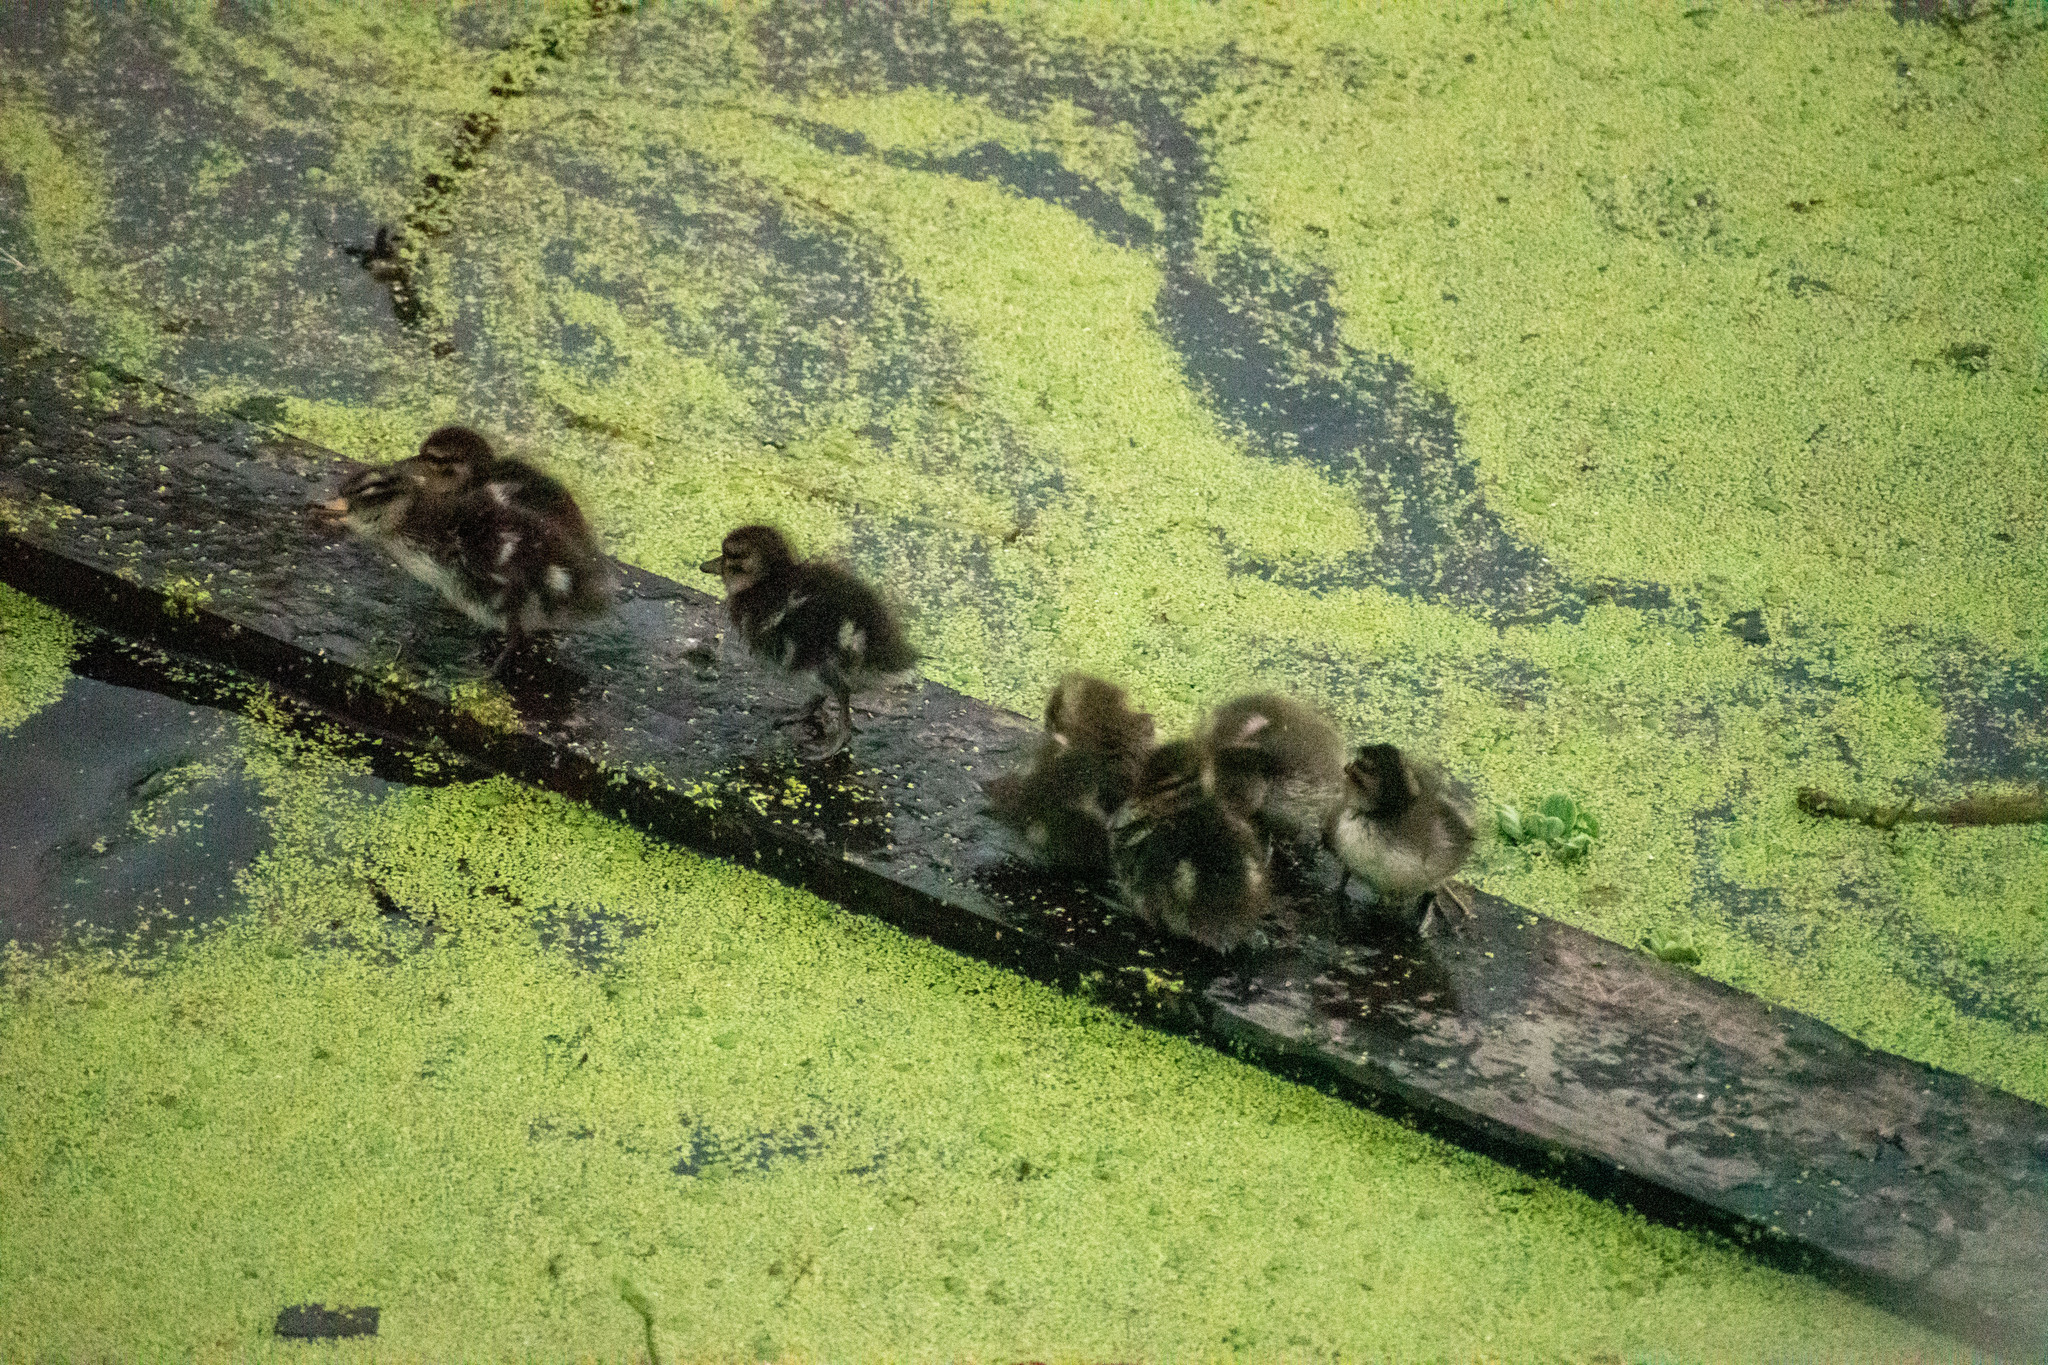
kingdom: Animalia
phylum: Chordata
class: Aves
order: Anseriformes
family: Anatidae
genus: Anas
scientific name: Anas flavirostris
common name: Yellow-billed teal
